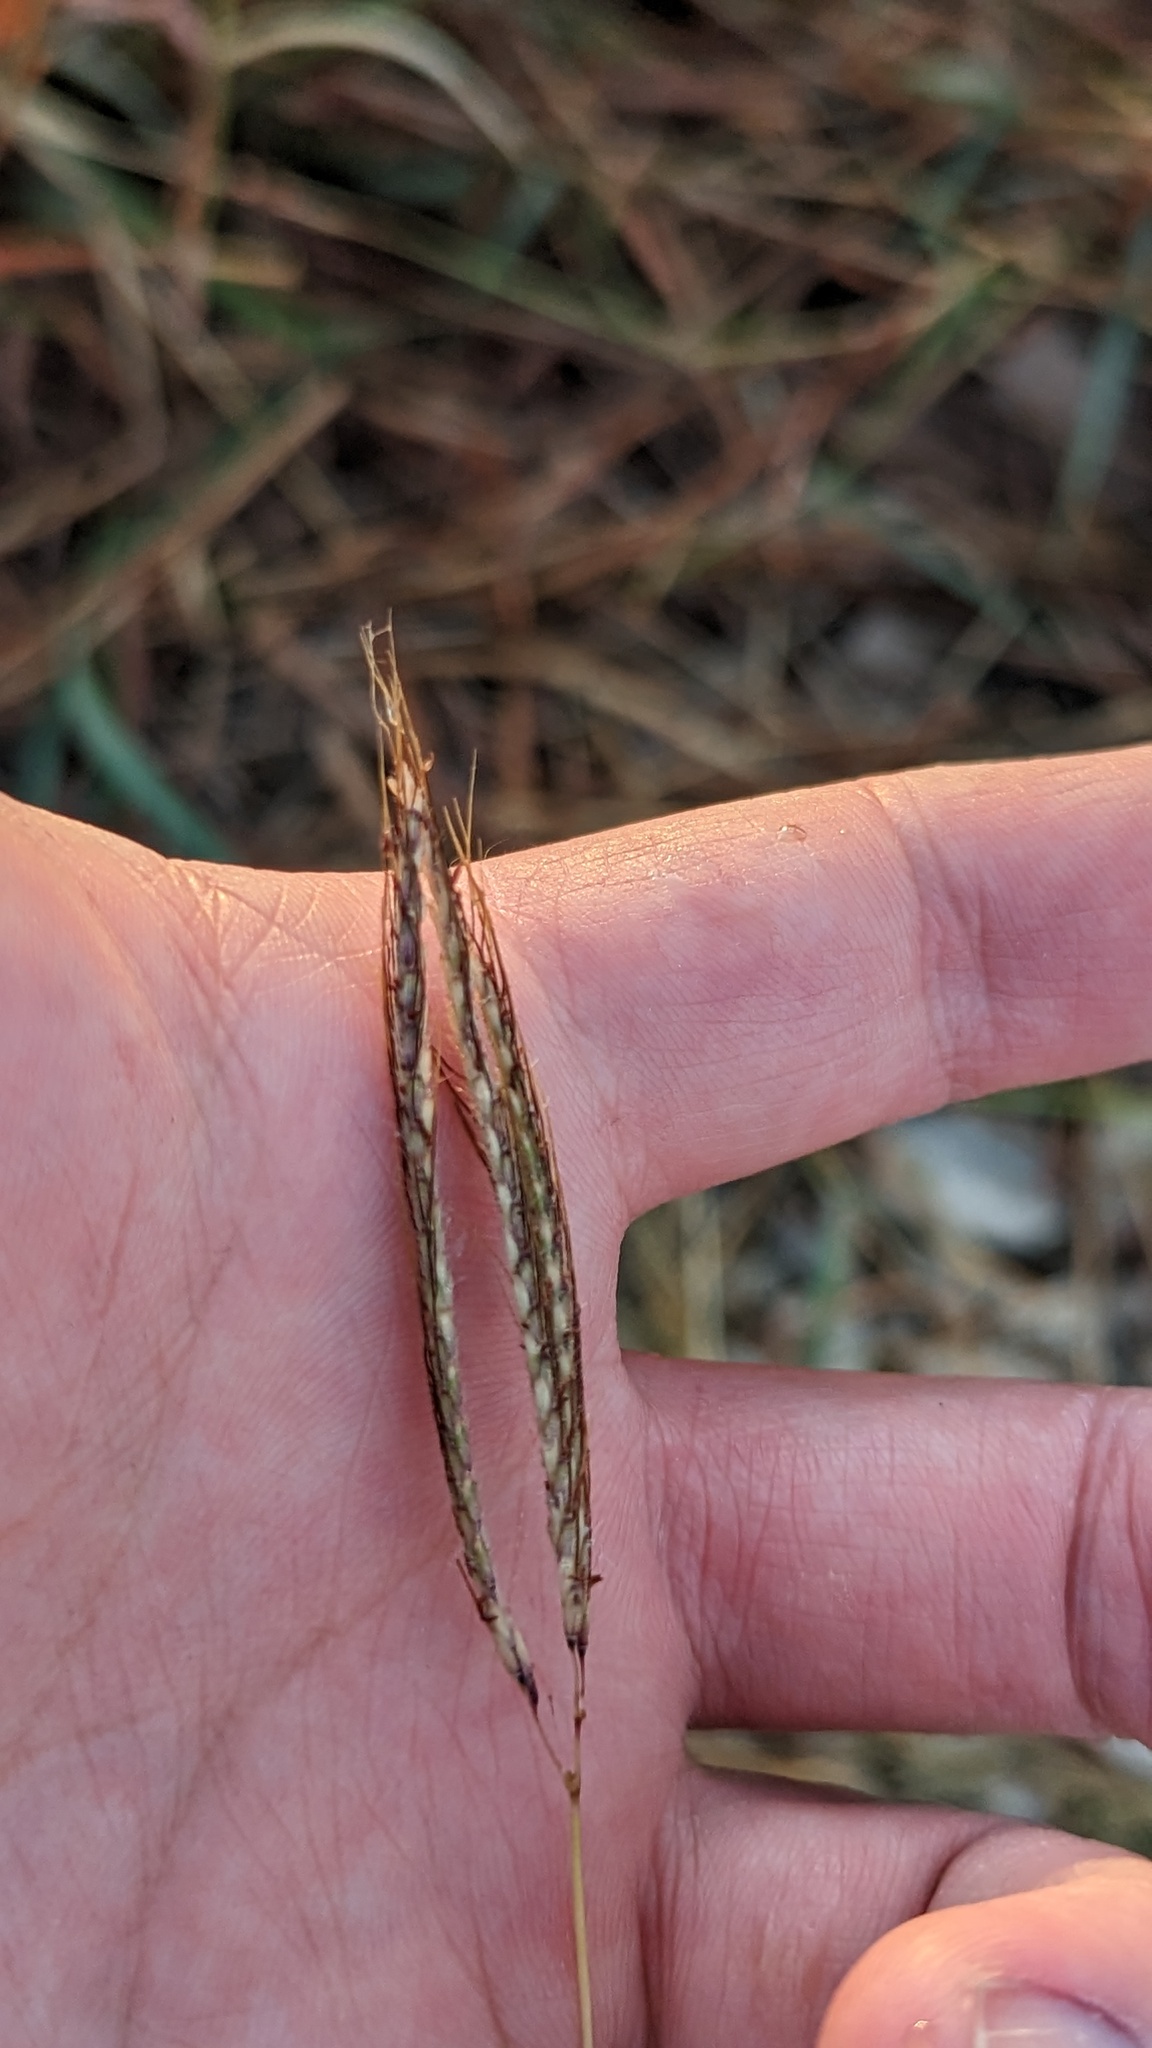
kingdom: Plantae
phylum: Tracheophyta
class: Liliopsida
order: Poales
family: Poaceae
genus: Dichanthium
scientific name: Dichanthium annulatum
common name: Kleberg's bluestem
